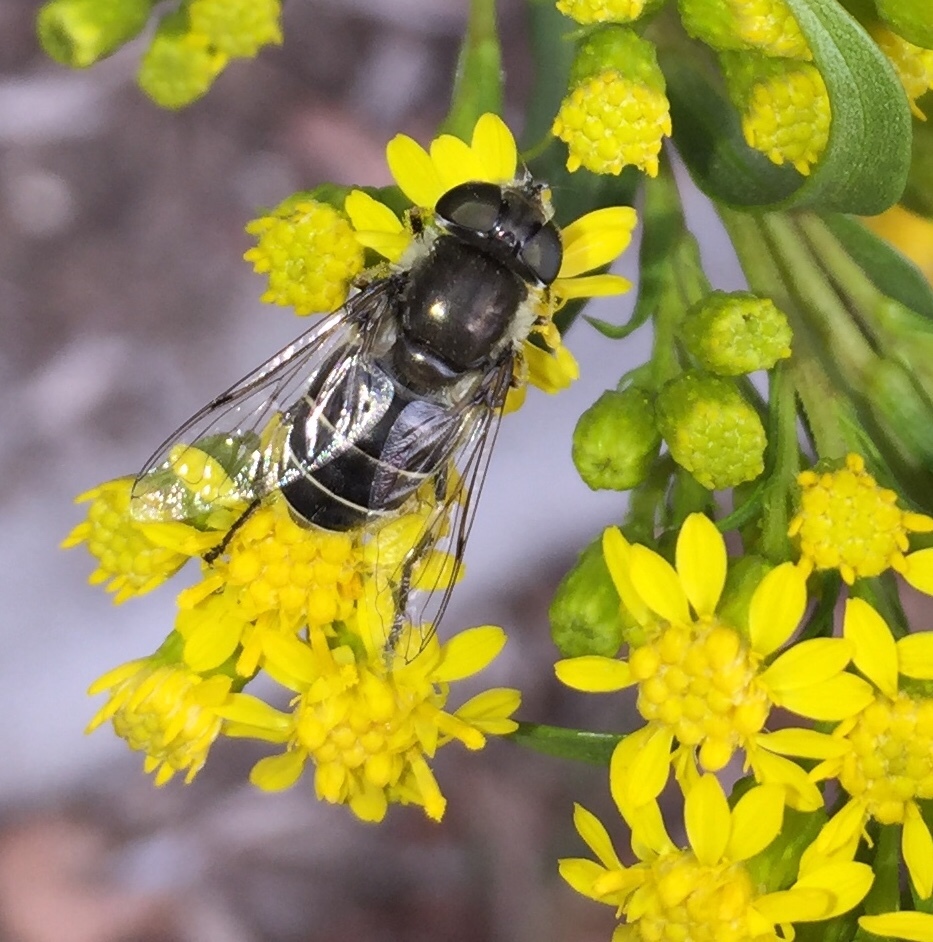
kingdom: Animalia
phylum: Arthropoda
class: Insecta
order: Diptera
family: Syrphidae
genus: Eristalis
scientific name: Eristalis dimidiata
